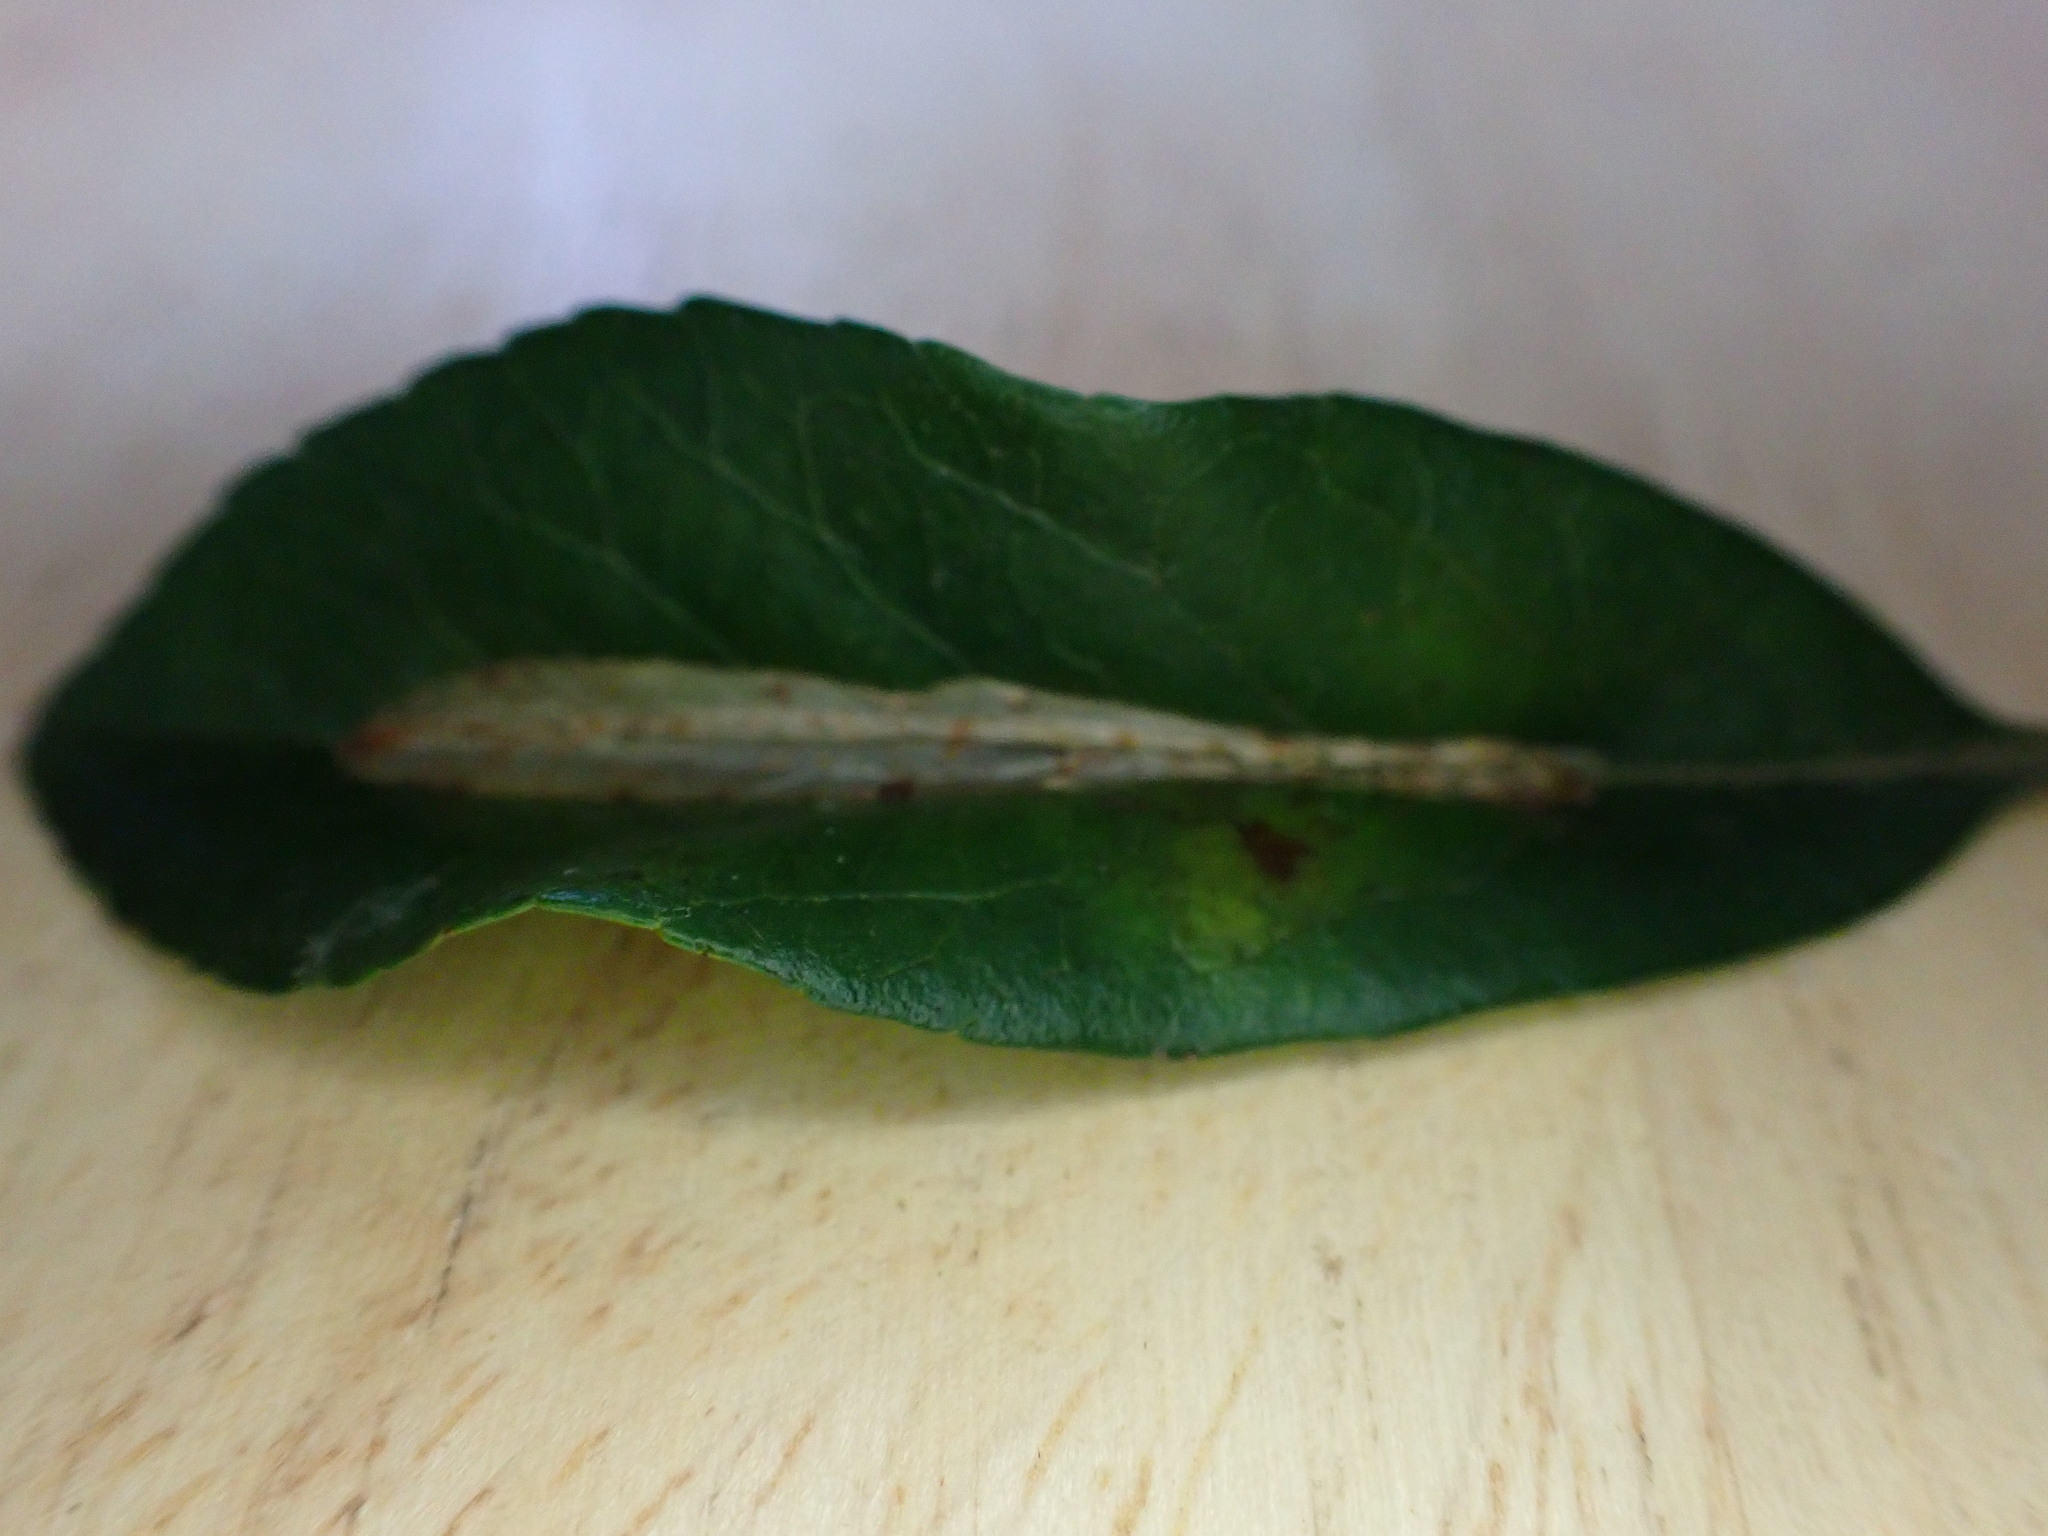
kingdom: Animalia
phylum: Arthropoda
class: Insecta
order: Lepidoptera
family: Gracillariidae
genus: Phyllonorycter
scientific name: Phyllonorycter leucographella
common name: Firethorn leaf-miner
